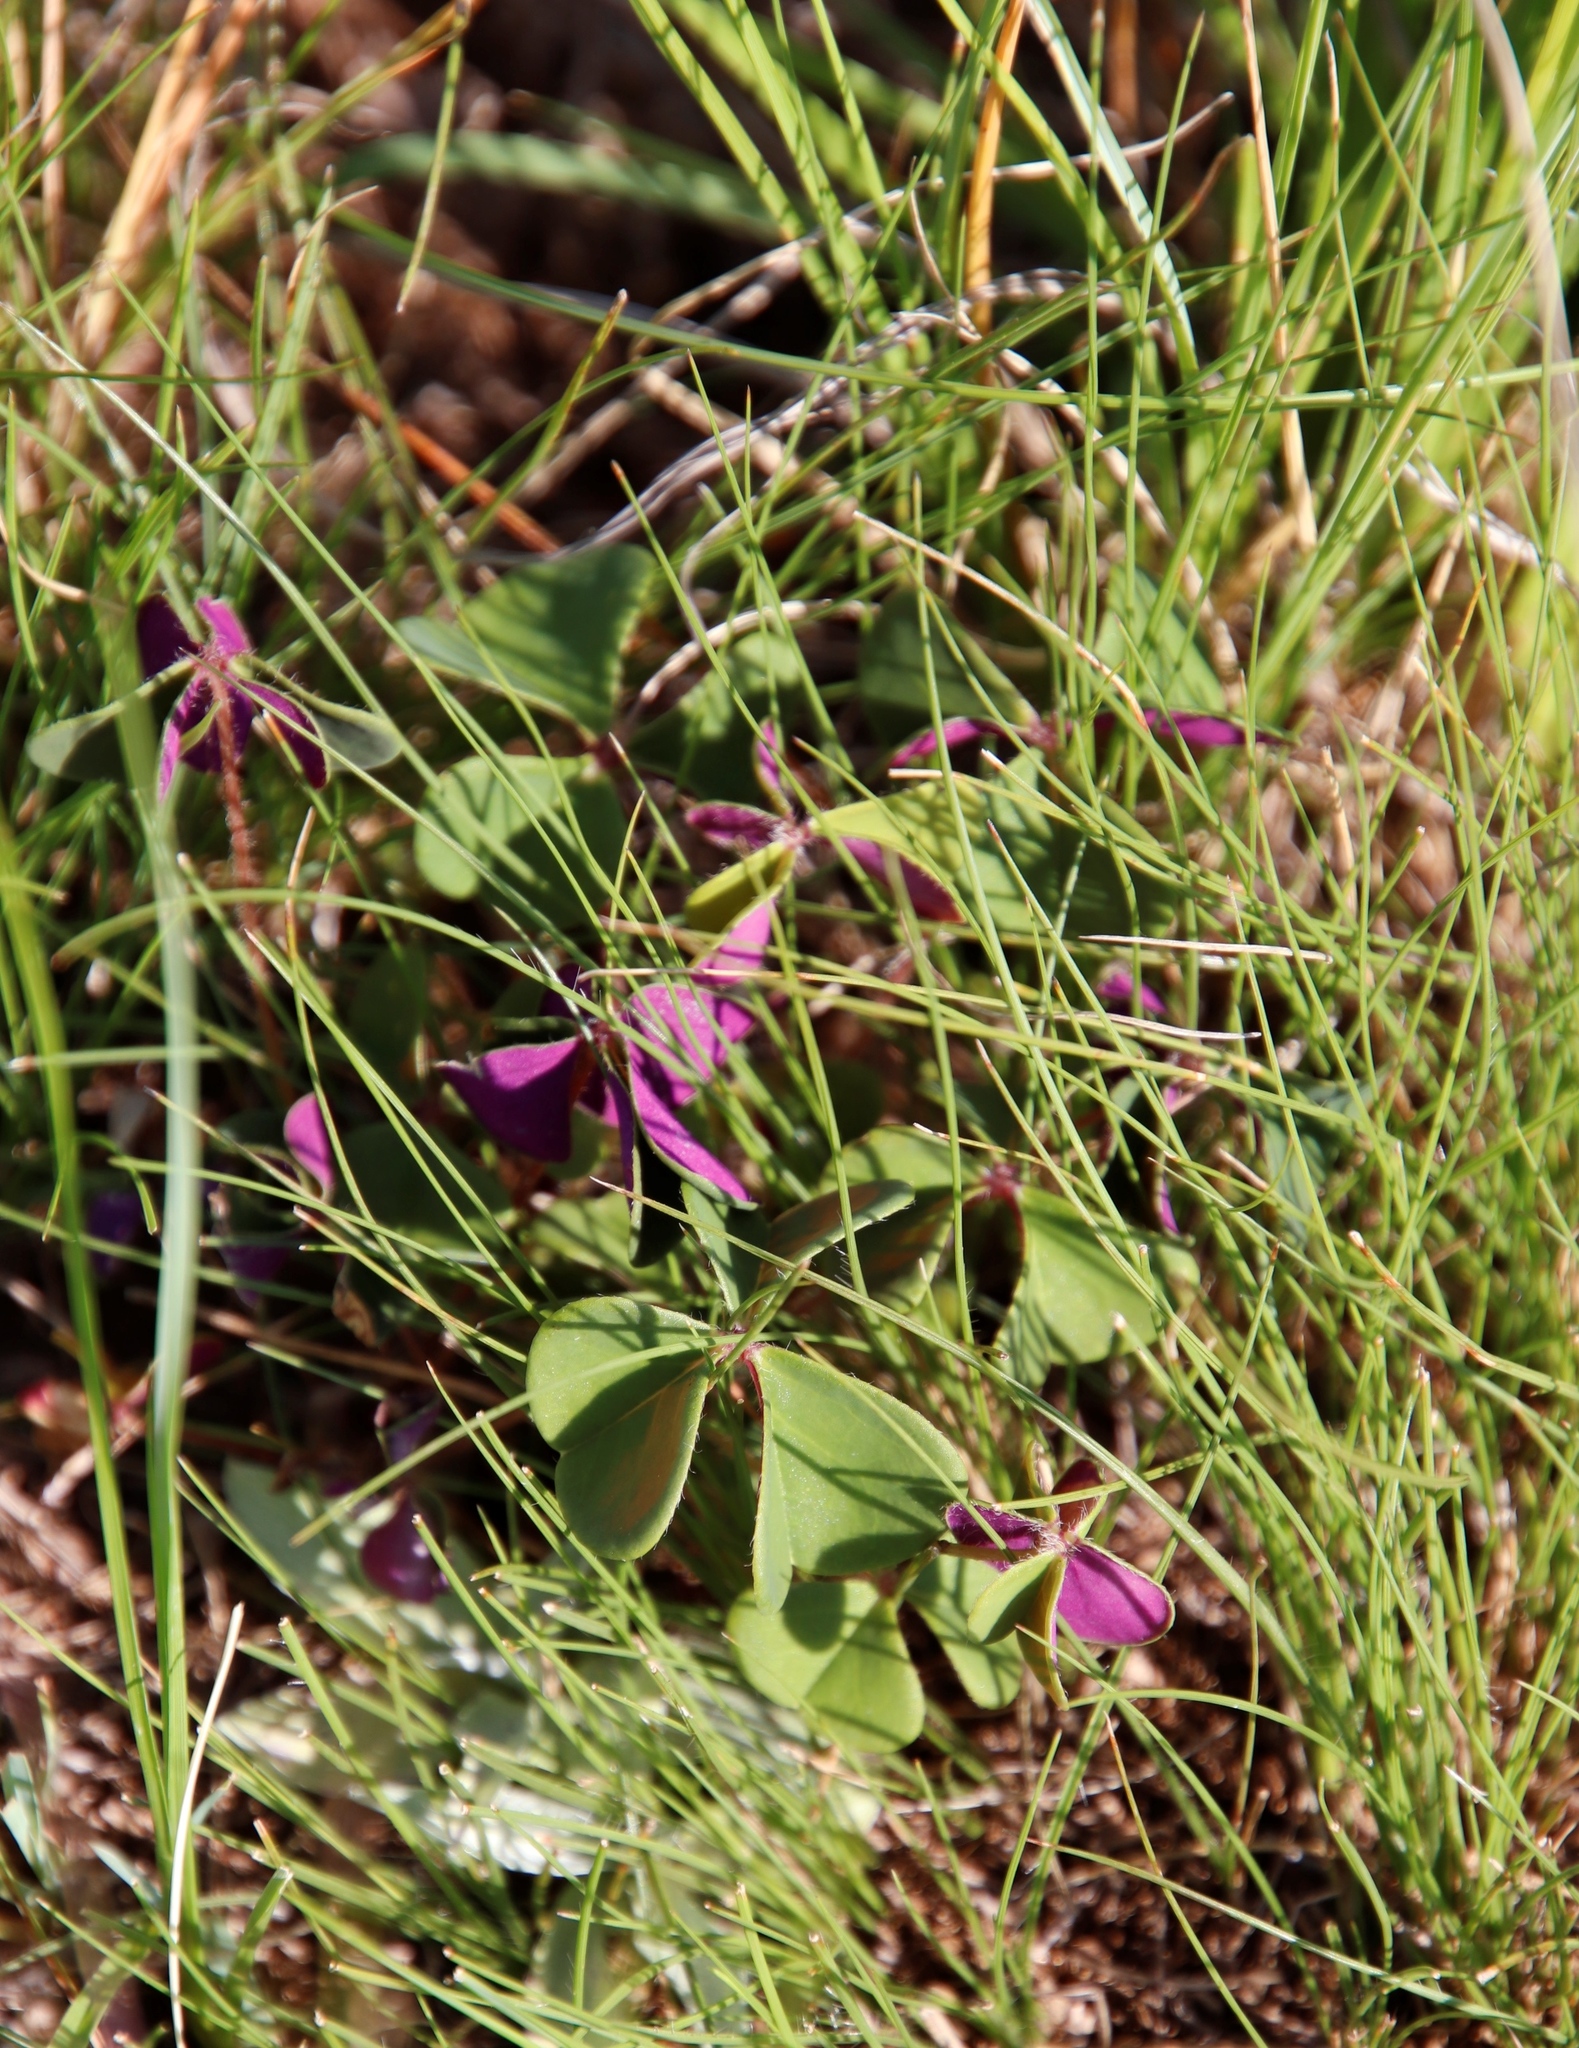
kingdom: Plantae
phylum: Tracheophyta
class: Magnoliopsida
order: Oxalidales
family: Oxalidaceae
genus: Oxalis
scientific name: Oxalis bowiei
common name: Bowie's wood-sorrel
